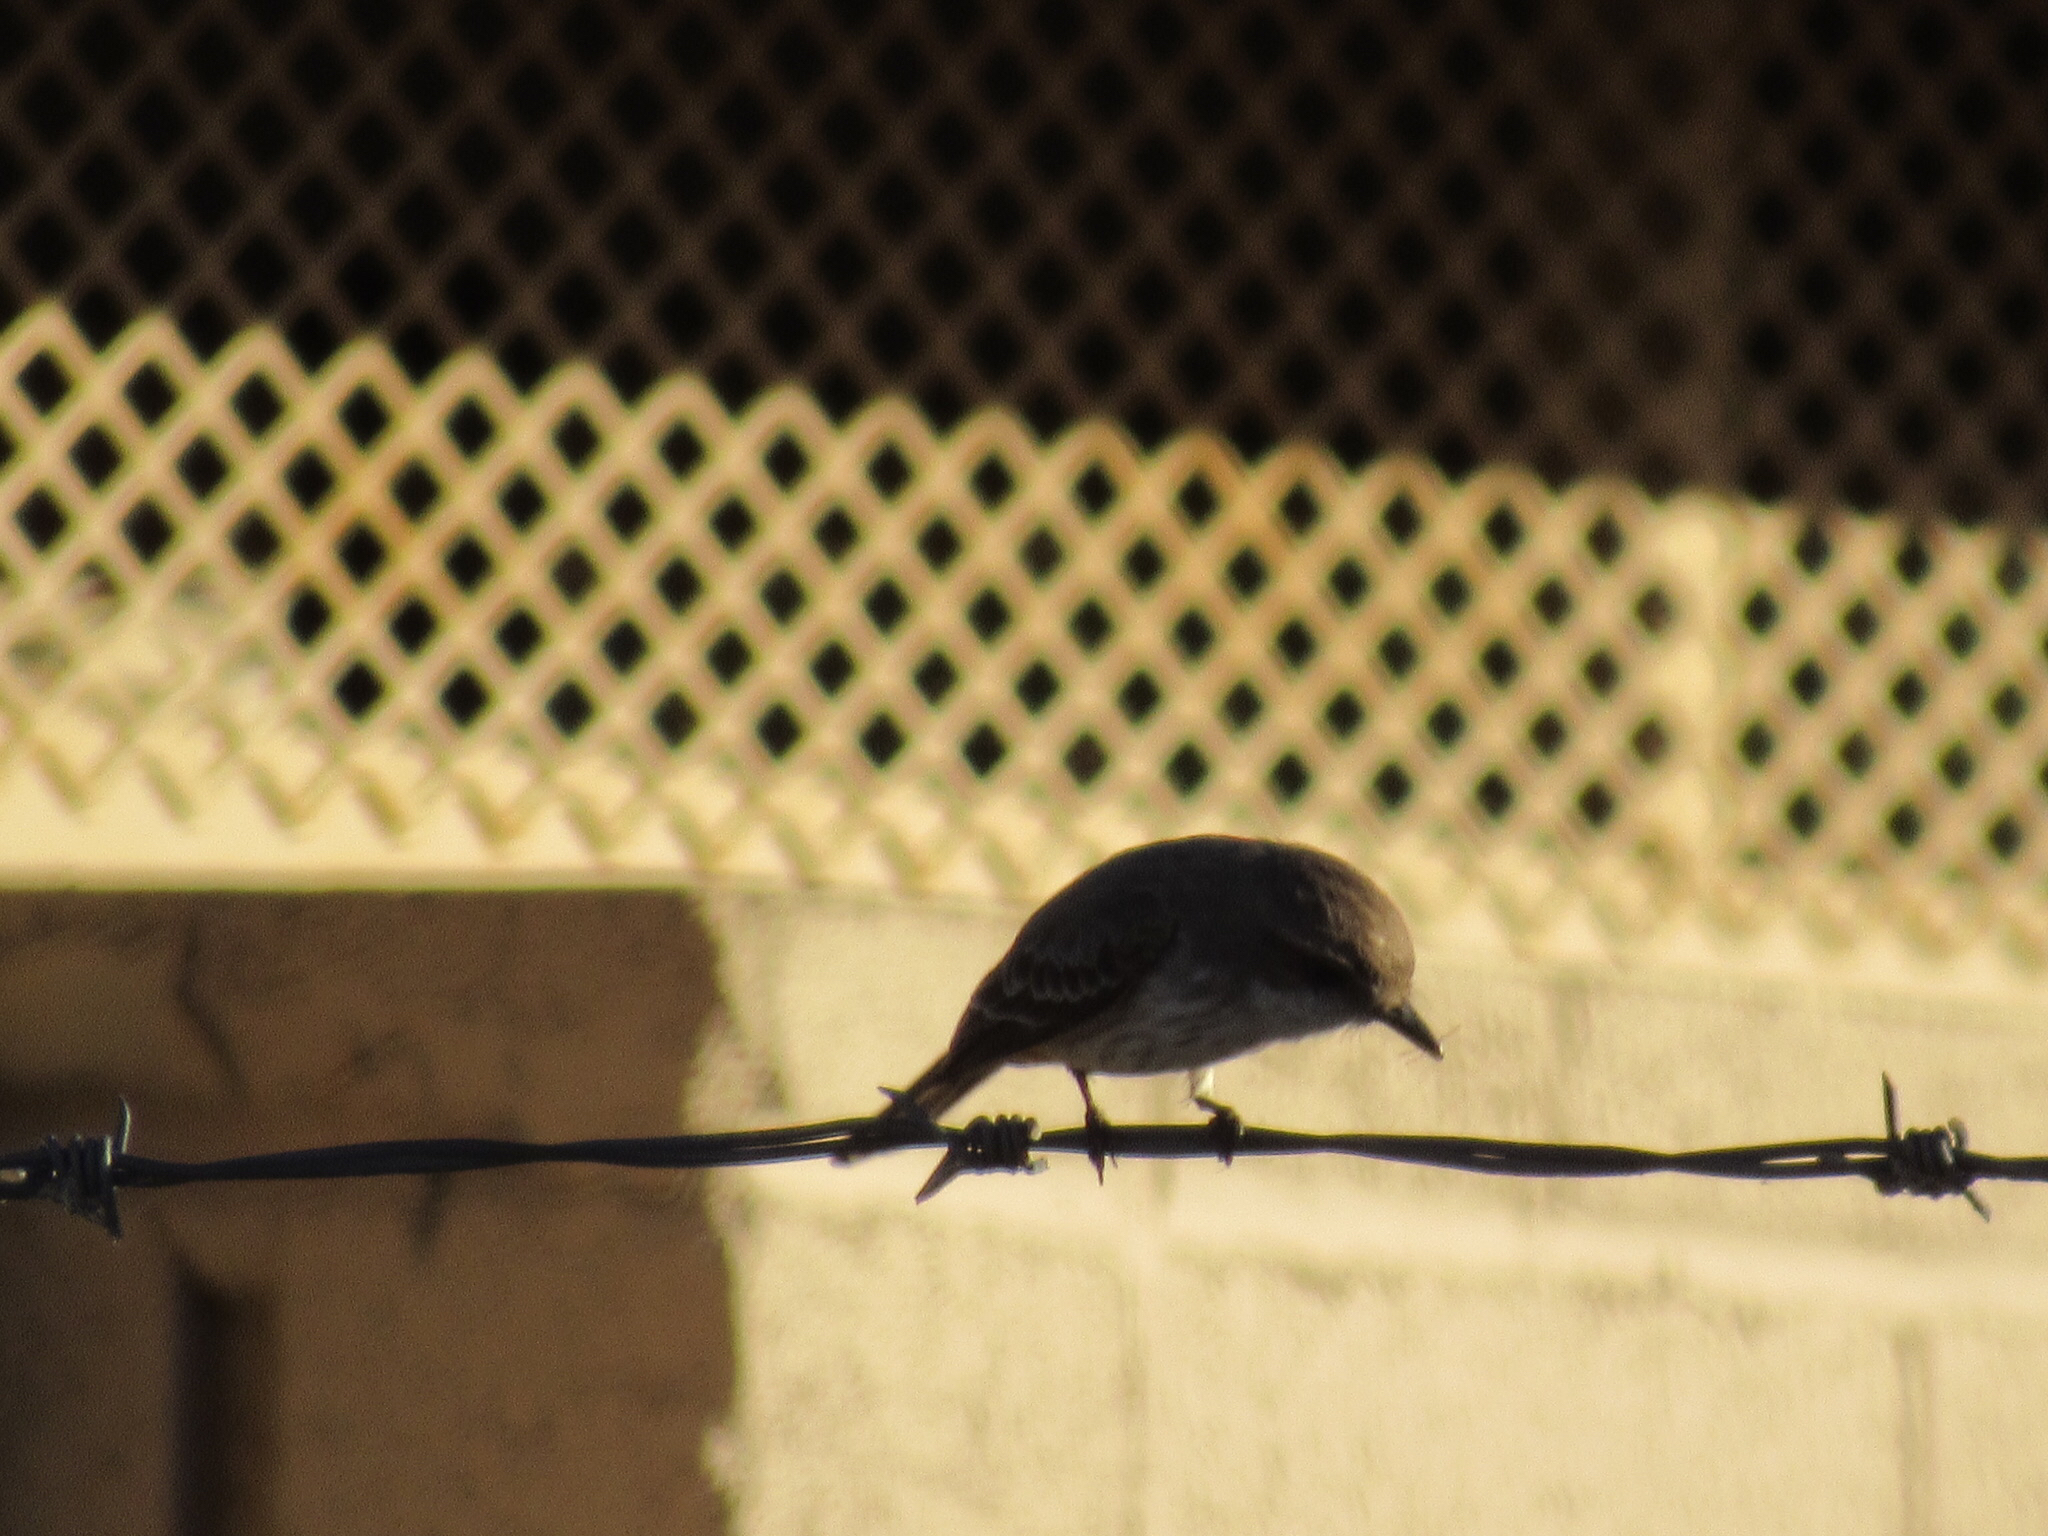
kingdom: Animalia
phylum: Chordata
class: Aves
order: Passeriformes
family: Tyrannidae
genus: Pyrocephalus
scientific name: Pyrocephalus rubinus
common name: Vermilion flycatcher
